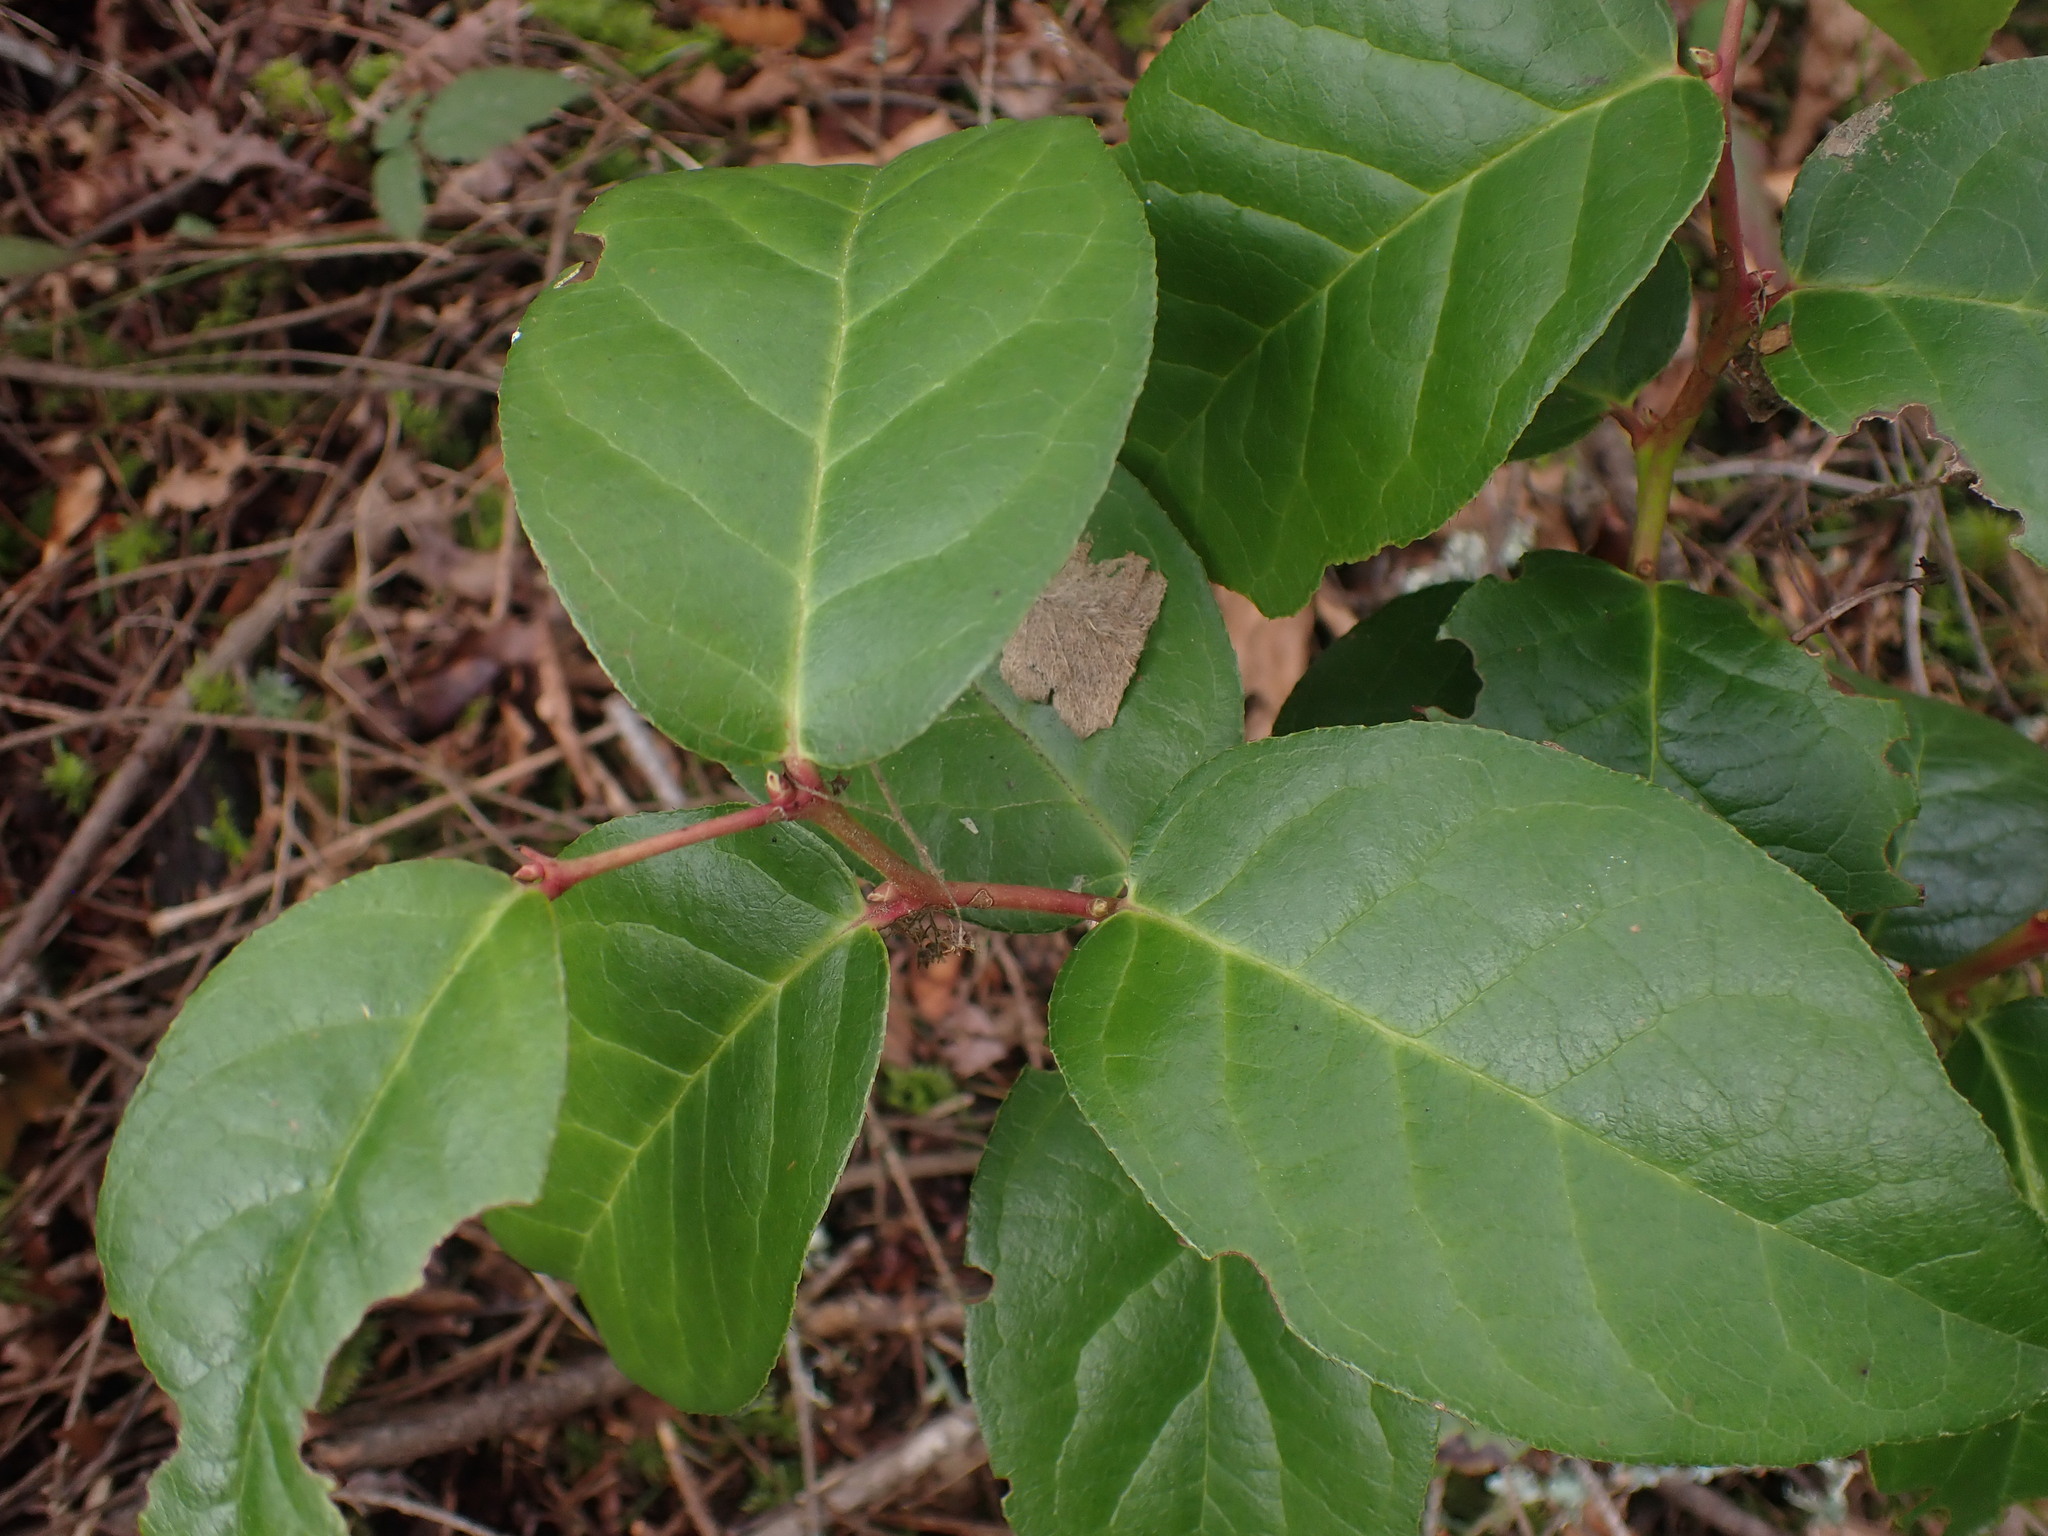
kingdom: Plantae
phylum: Tracheophyta
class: Magnoliopsida
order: Ericales
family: Ericaceae
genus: Gaultheria
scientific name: Gaultheria shallon
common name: Shallon
